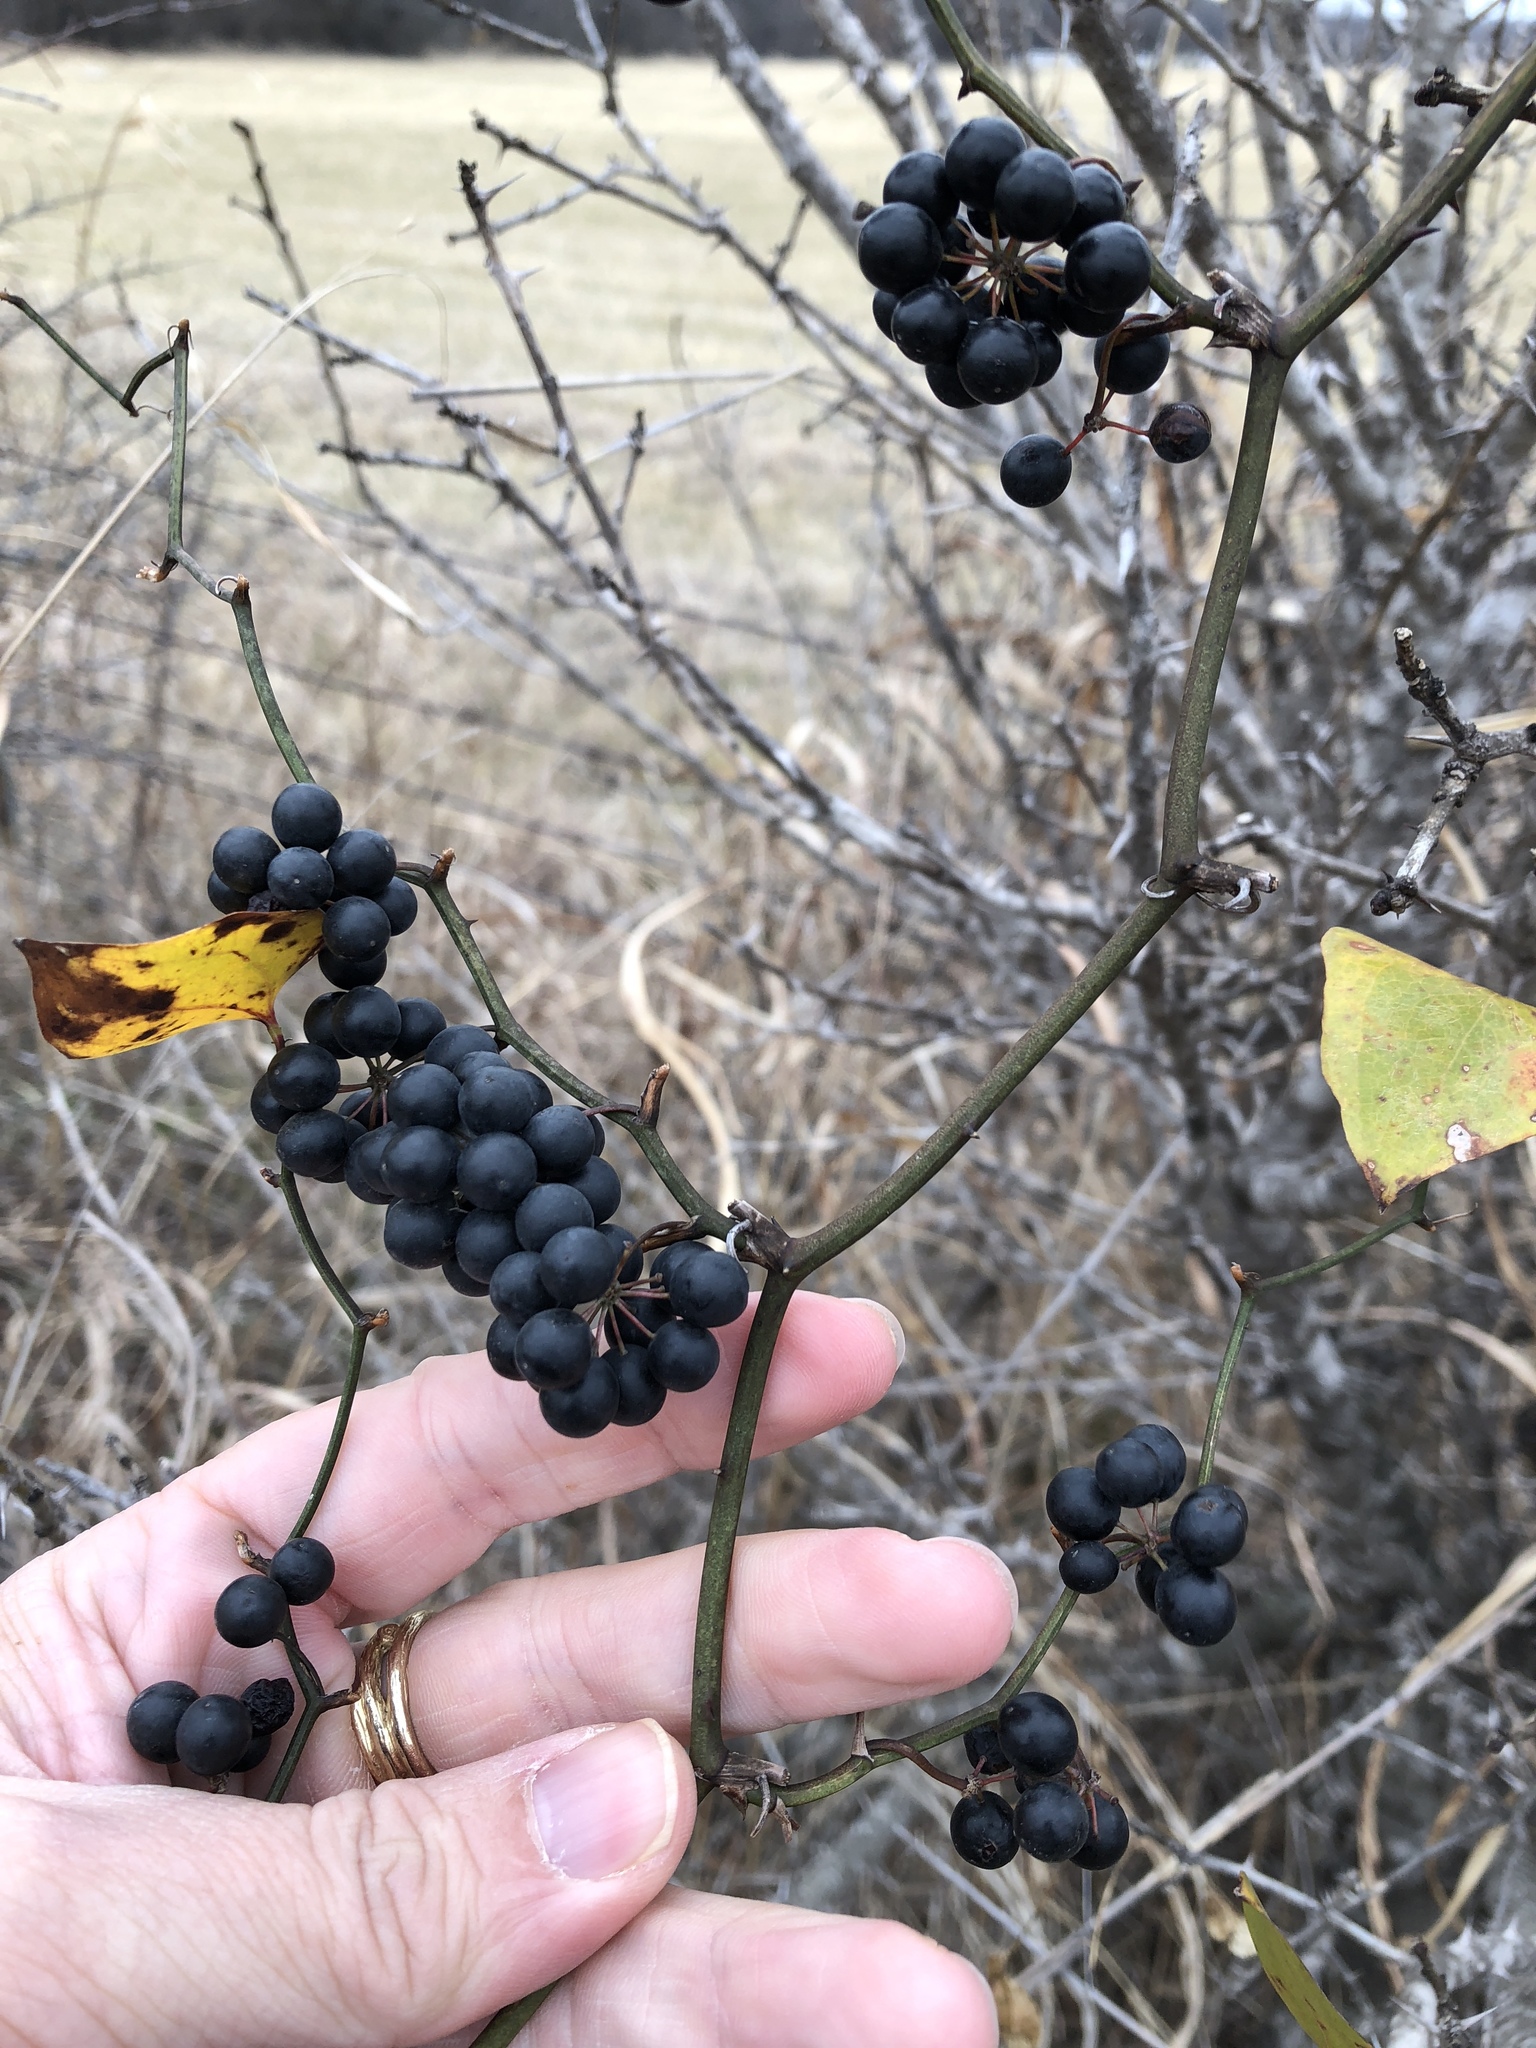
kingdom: Plantae
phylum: Tracheophyta
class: Liliopsida
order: Liliales
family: Smilacaceae
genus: Smilax
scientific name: Smilax bona-nox
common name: Catbrier
